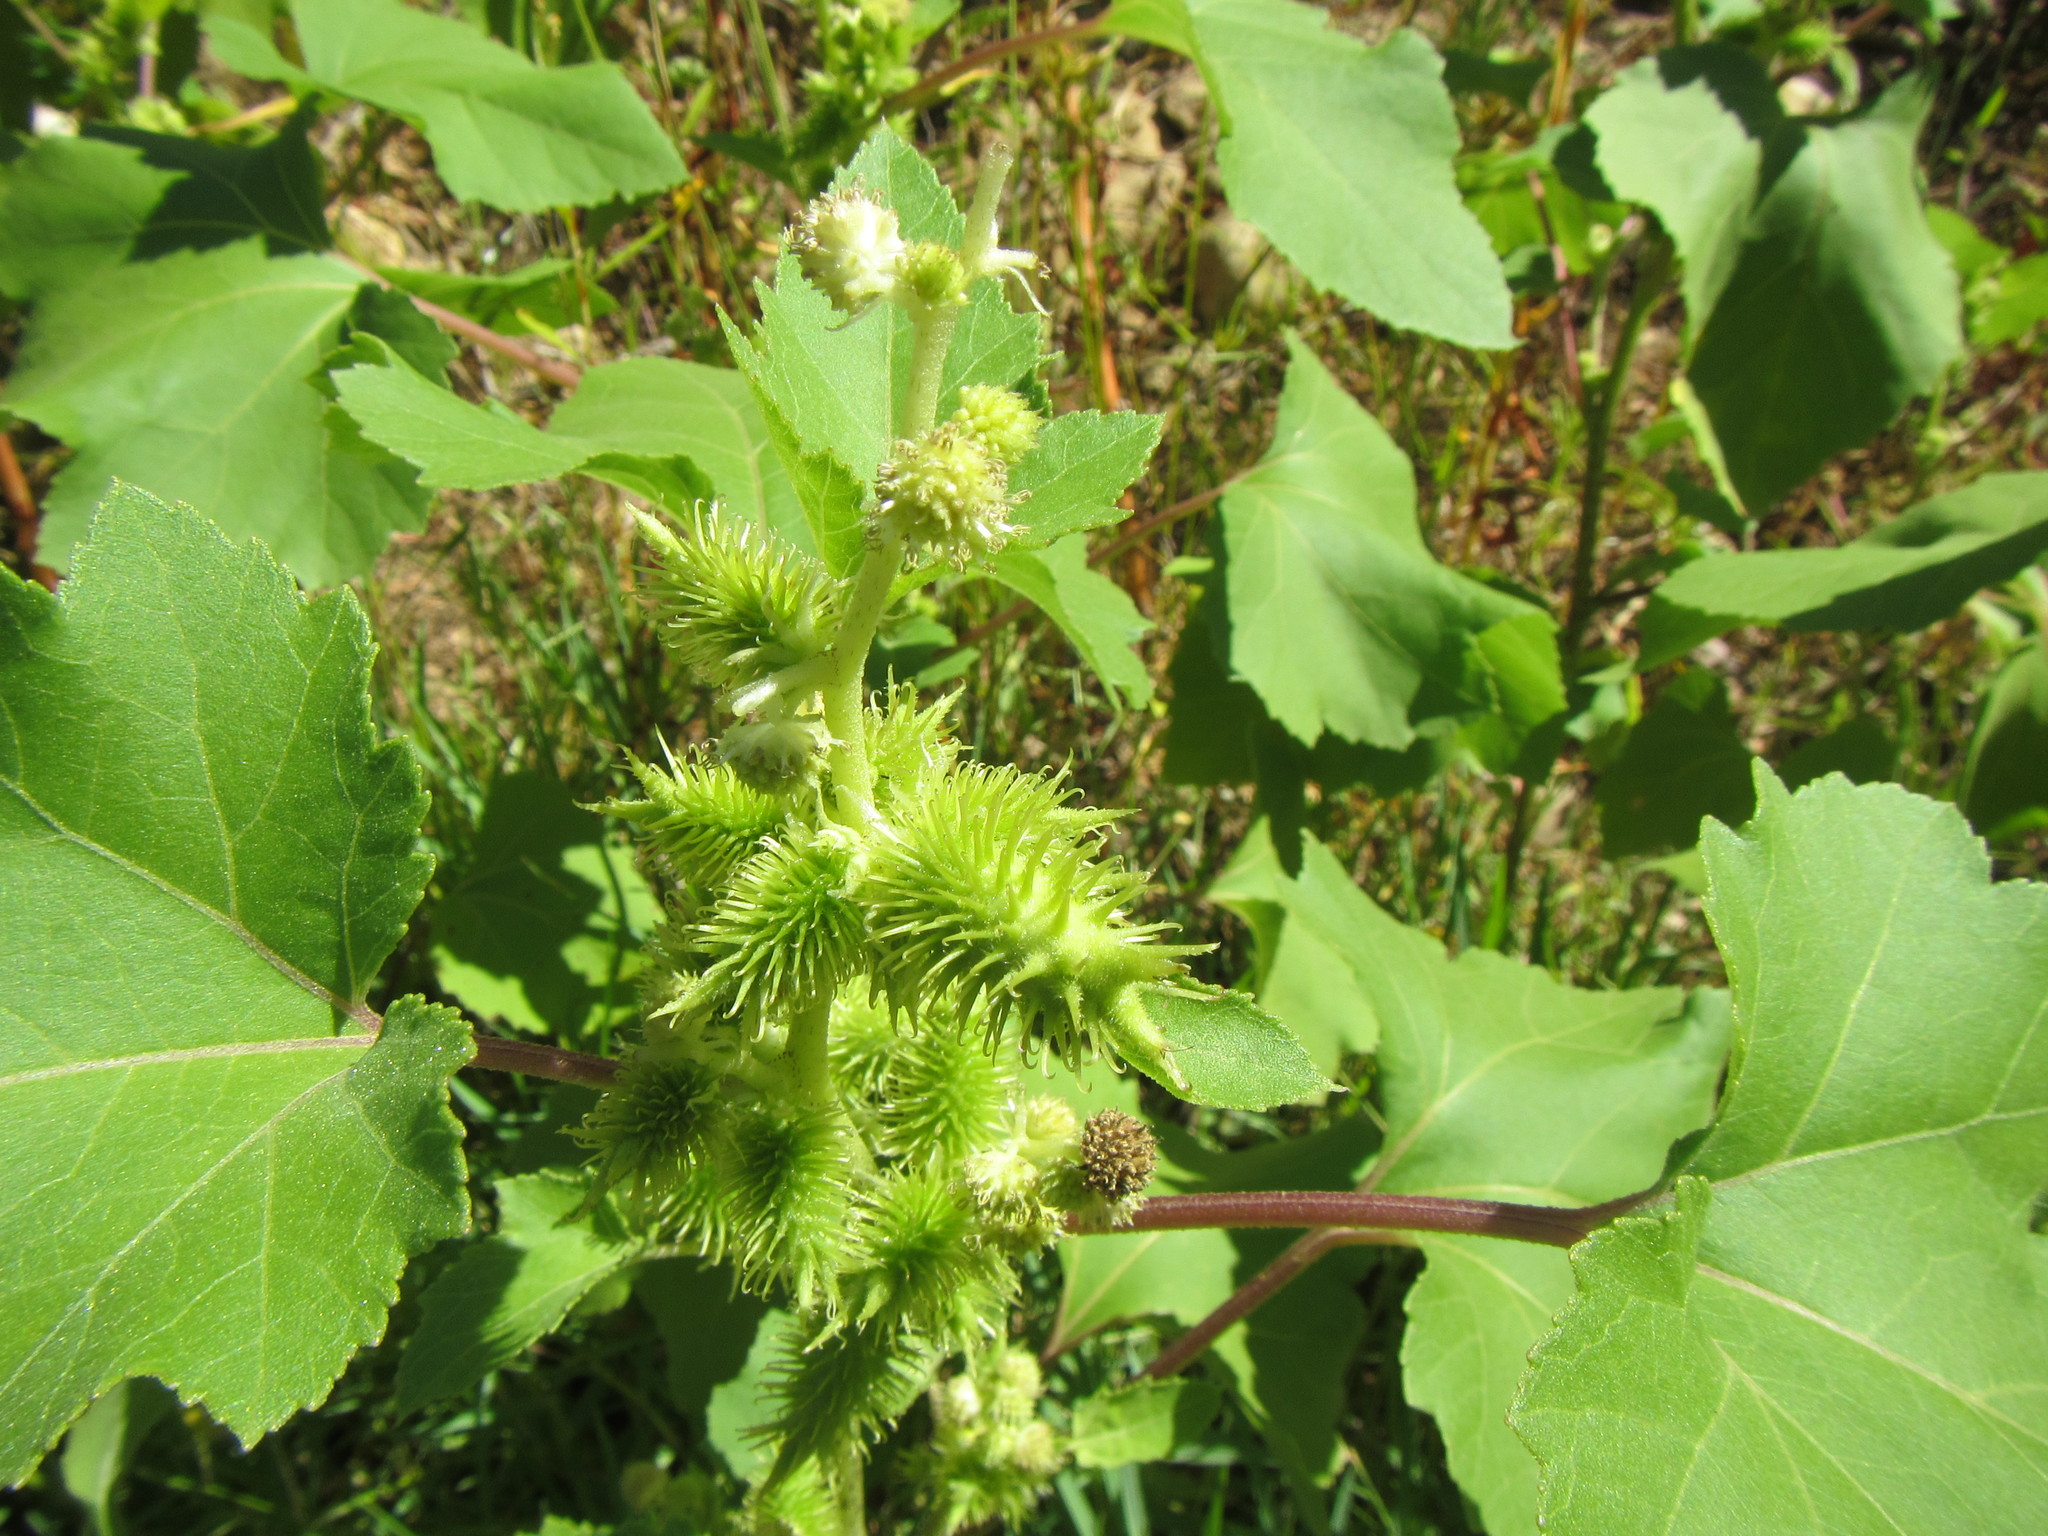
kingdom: Plantae
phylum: Tracheophyta
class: Magnoliopsida
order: Asterales
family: Asteraceae
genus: Xanthium
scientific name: Xanthium strumarium
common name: Rough cocklebur
